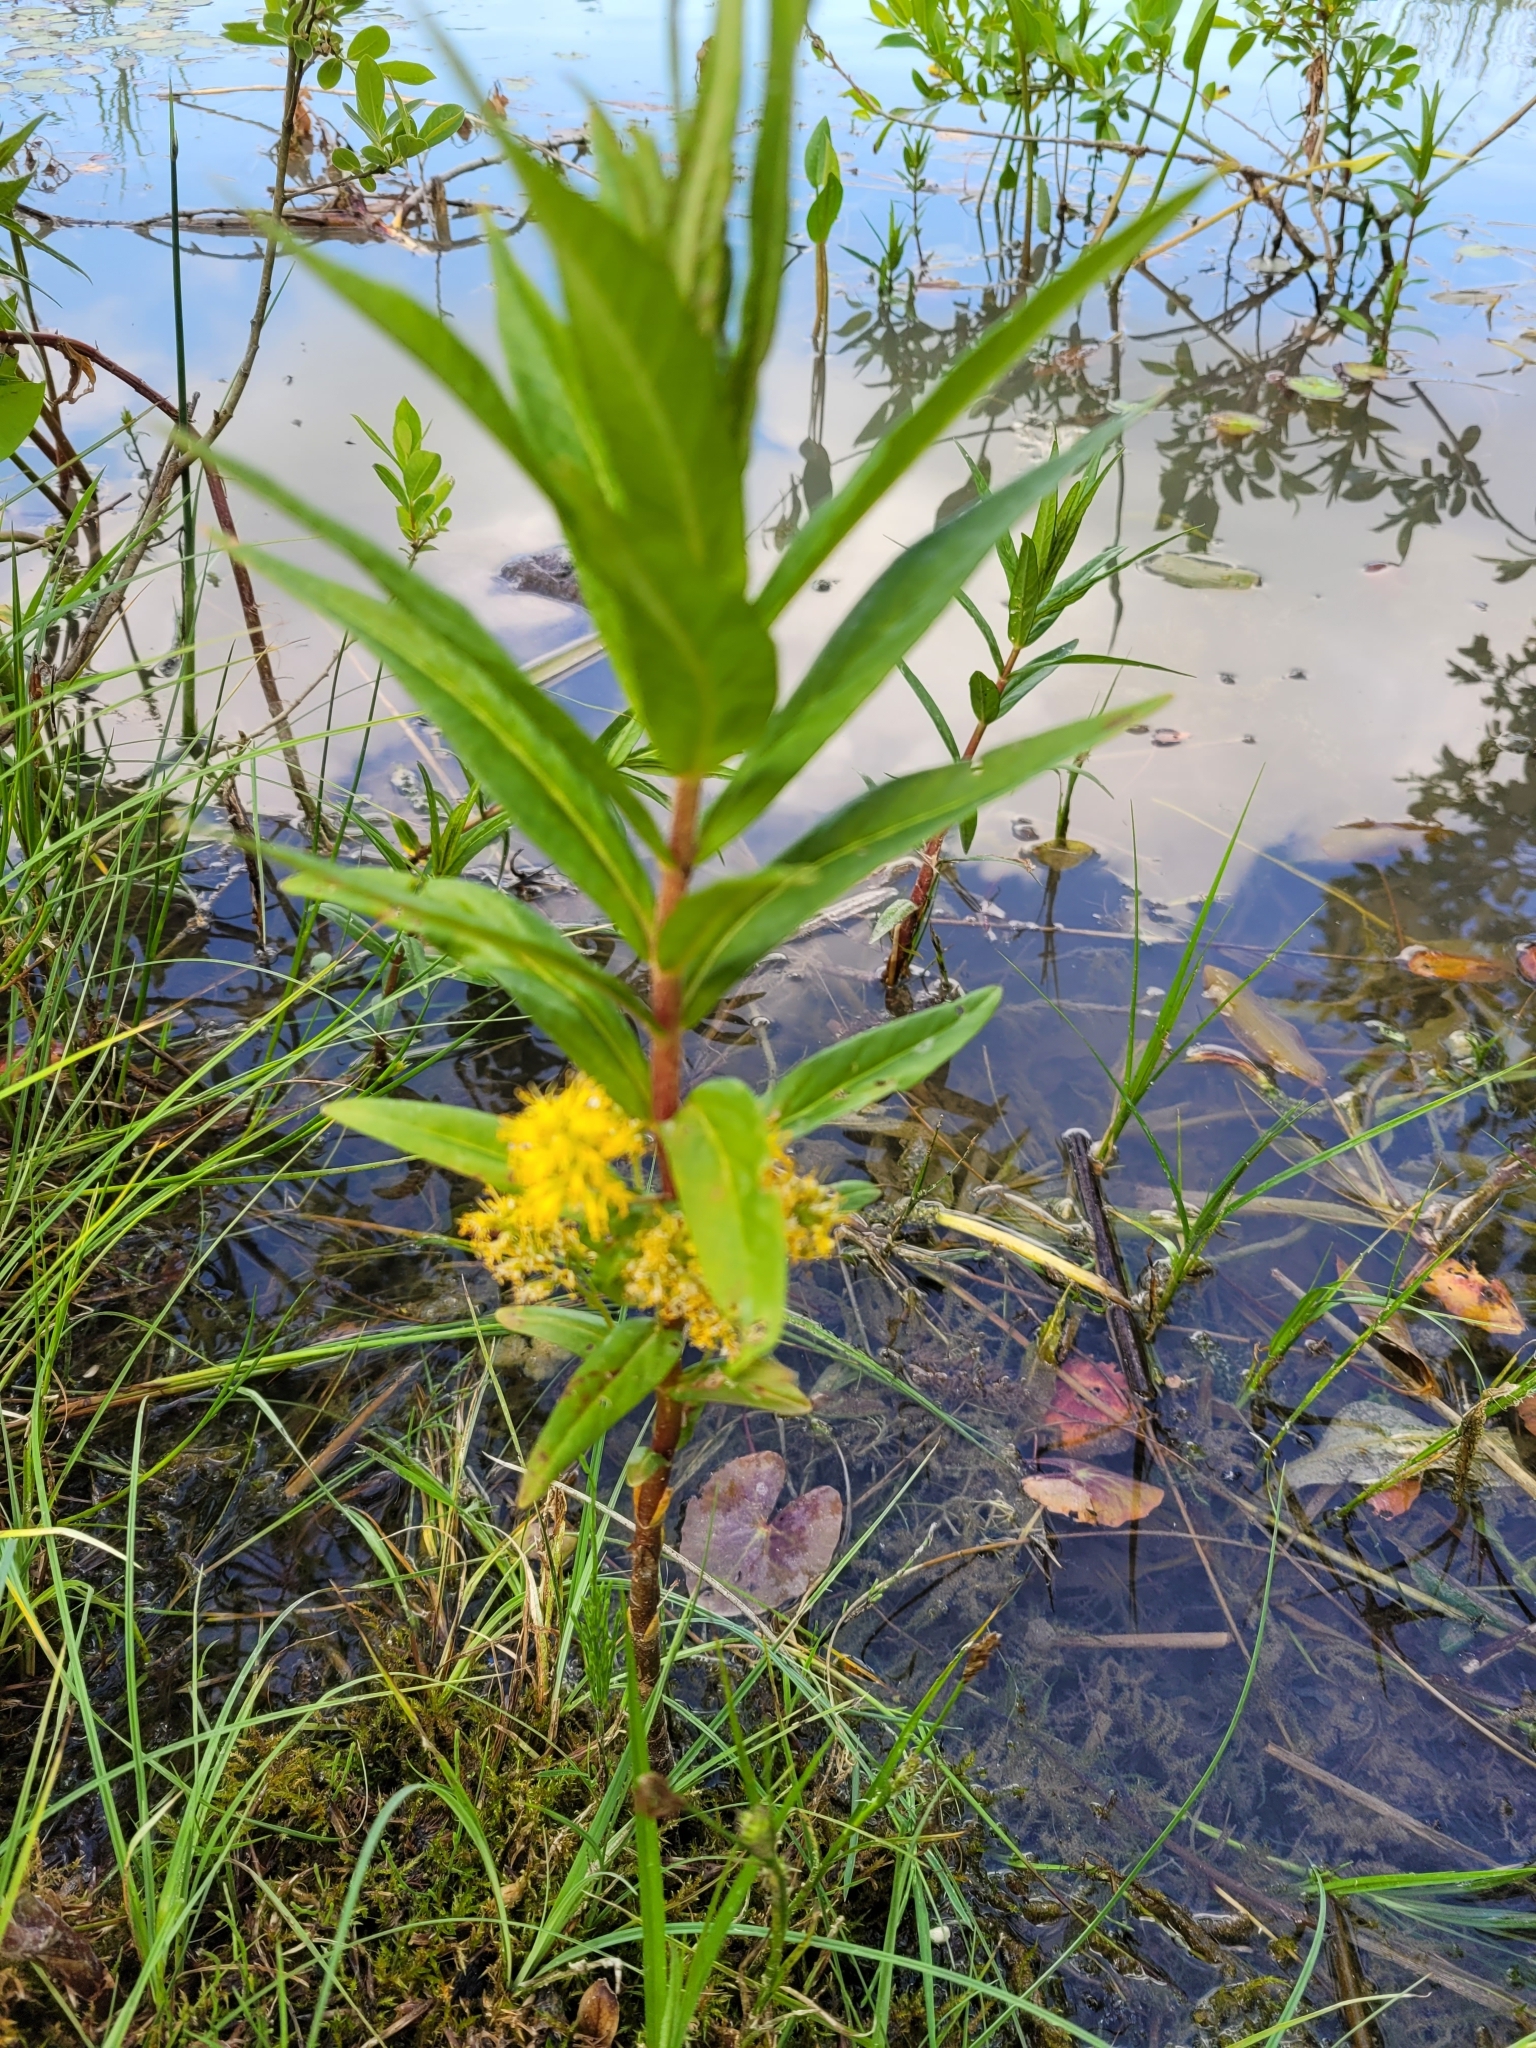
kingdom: Plantae
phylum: Tracheophyta
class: Magnoliopsida
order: Ericales
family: Primulaceae
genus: Lysimachia
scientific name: Lysimachia thyrsiflora
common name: Tufted loosestrife
